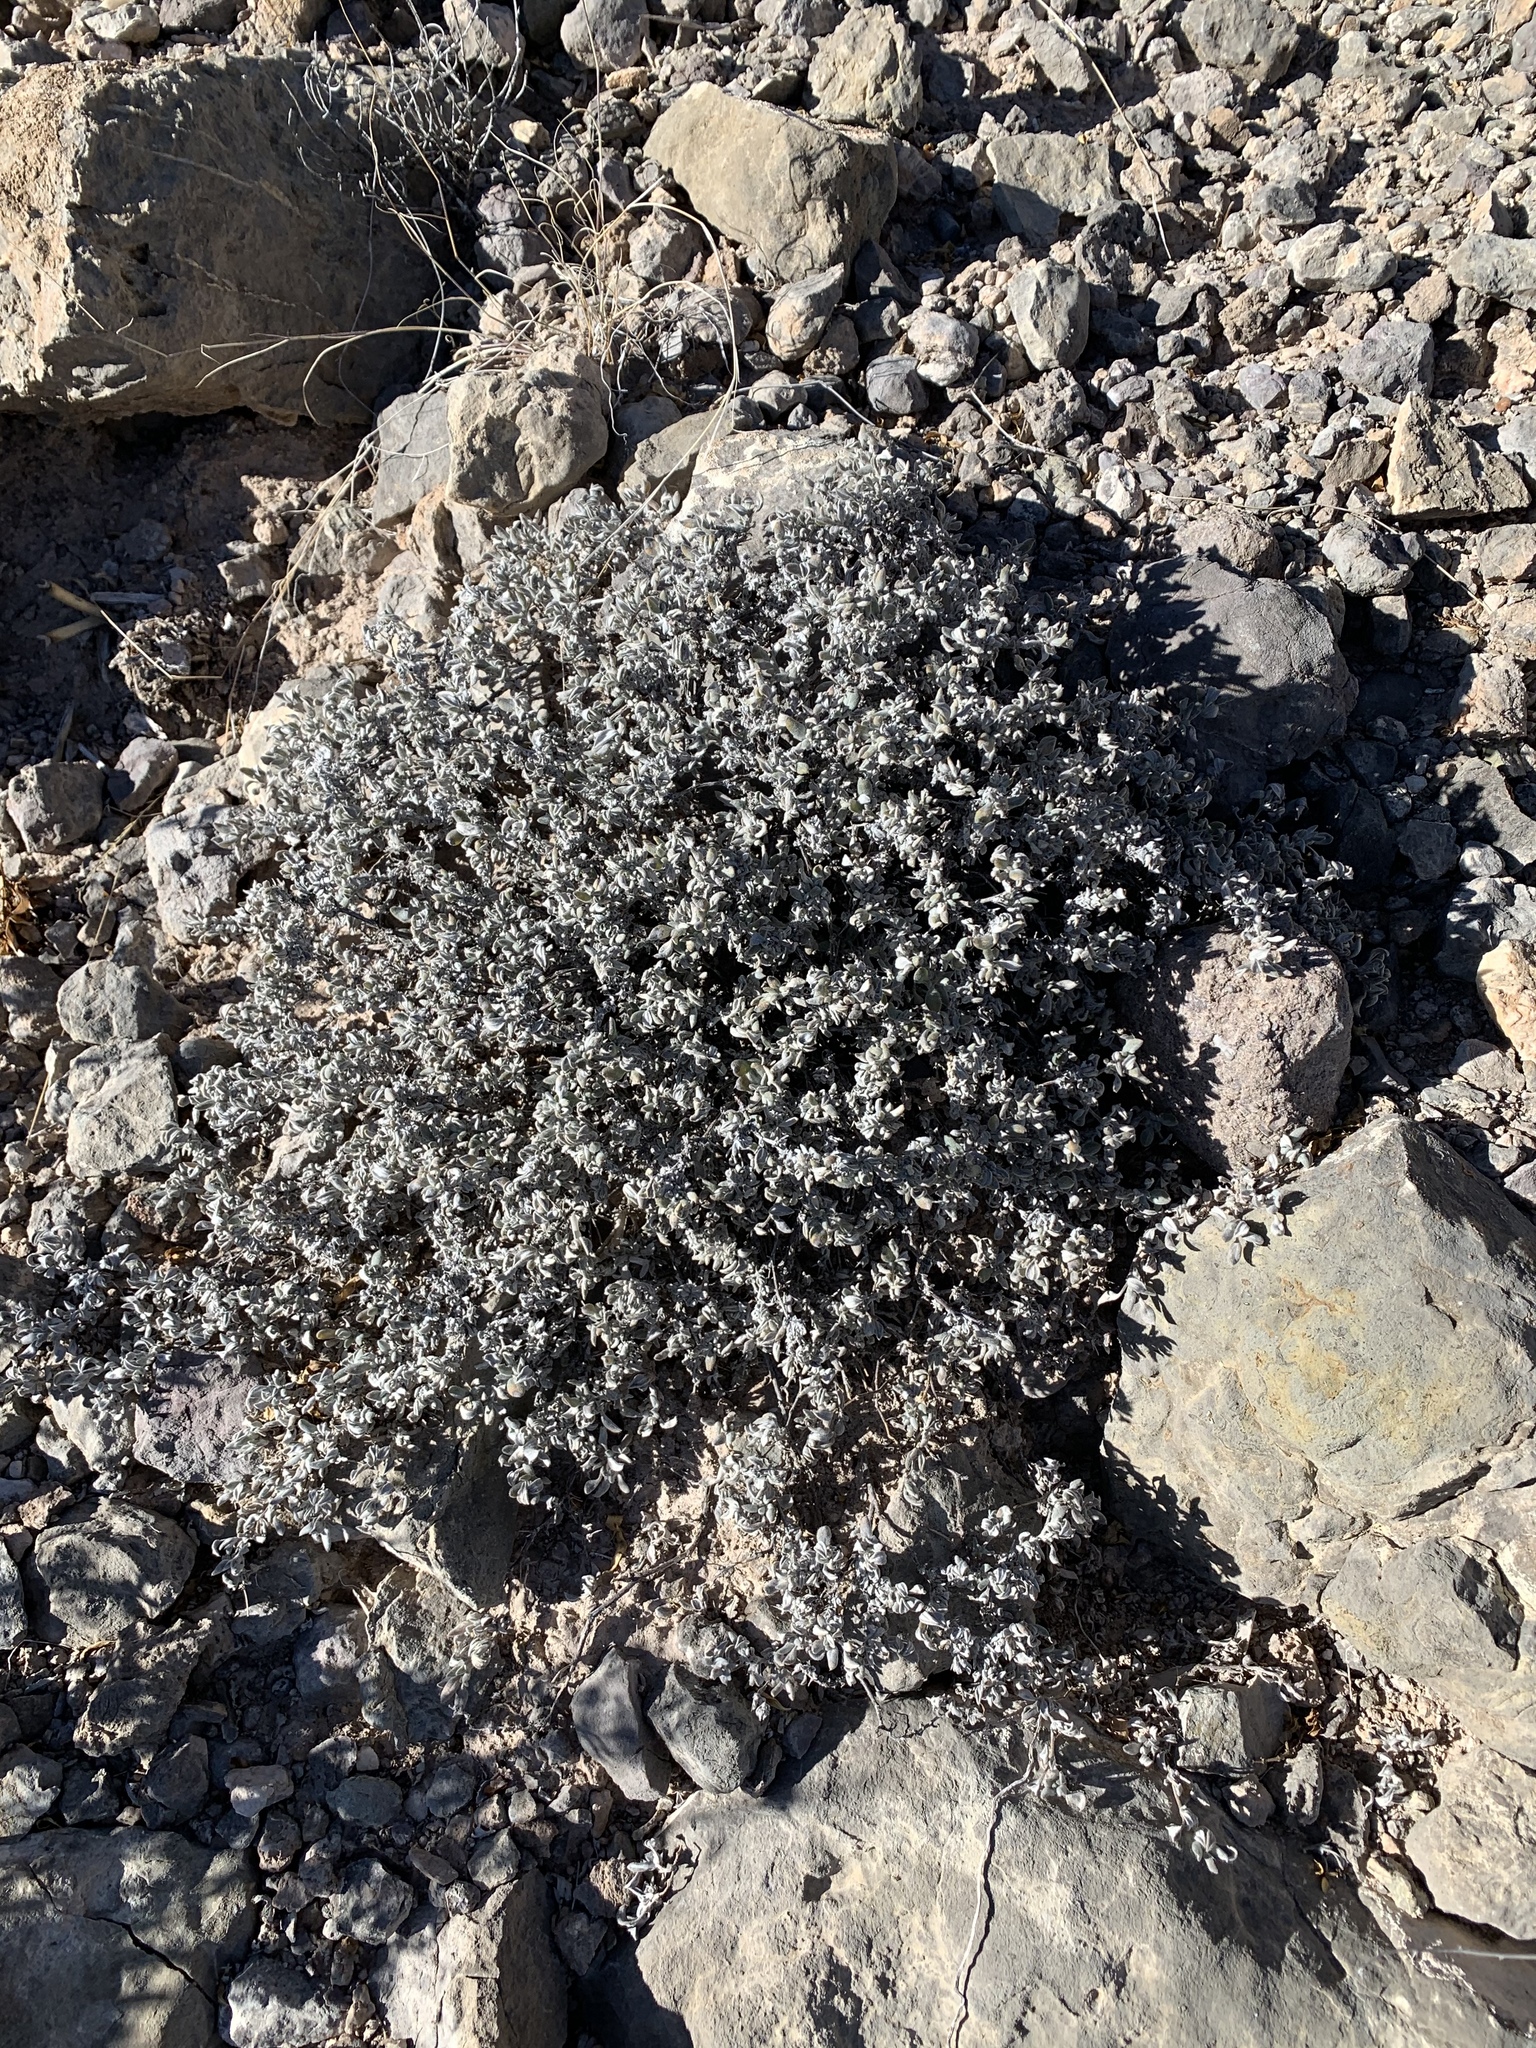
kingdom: Plantae
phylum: Tracheophyta
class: Magnoliopsida
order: Boraginales
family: Ehretiaceae
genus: Tiquilia
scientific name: Tiquilia canescens
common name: Hairy tiquilia
